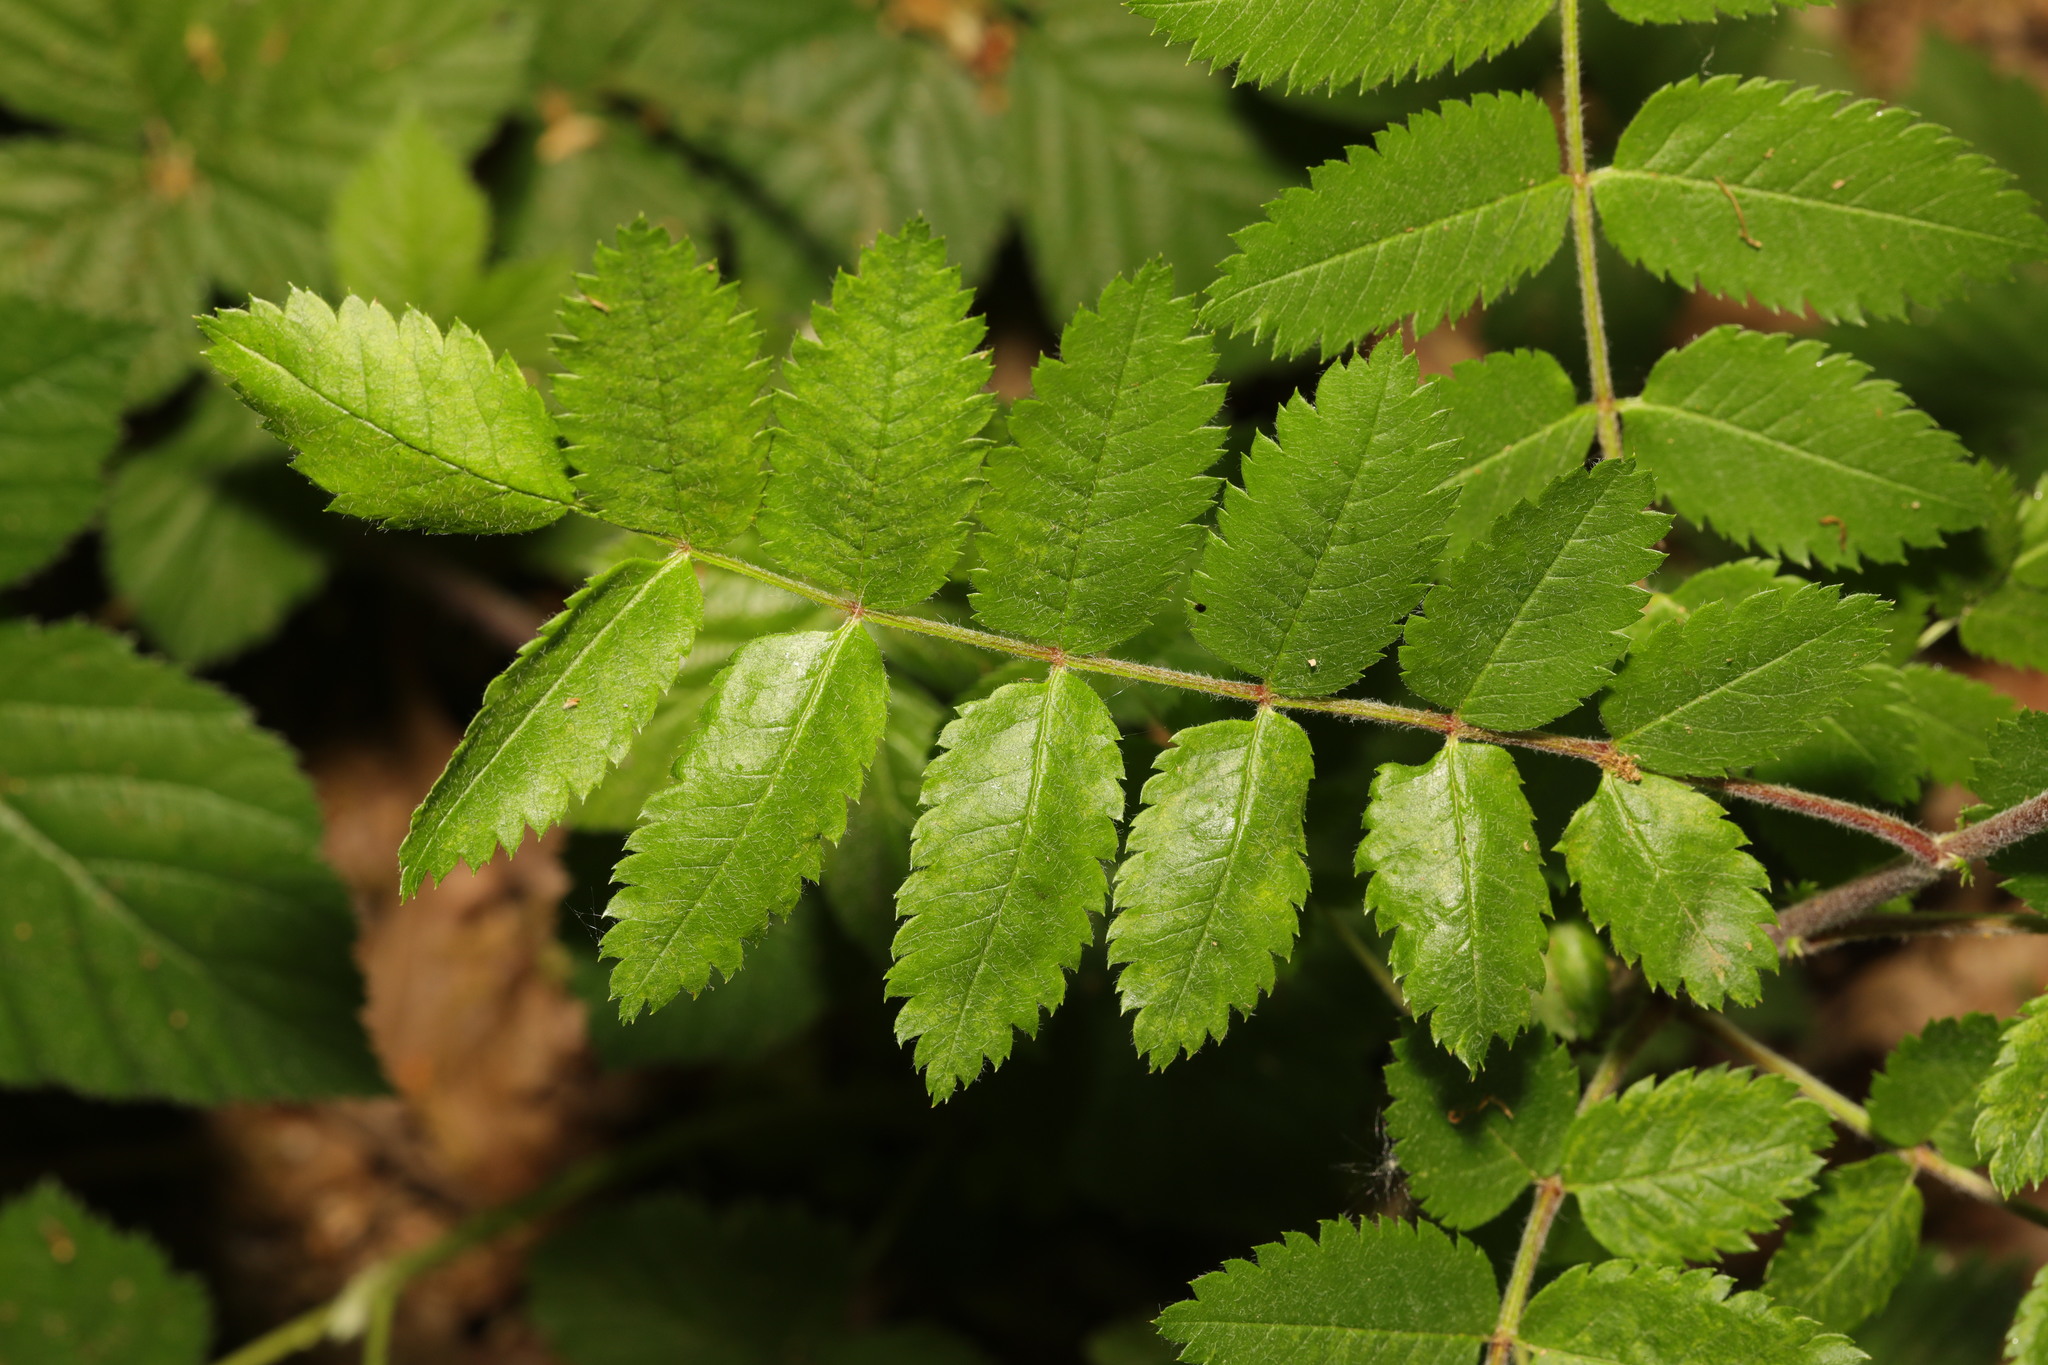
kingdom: Plantae
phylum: Tracheophyta
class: Magnoliopsida
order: Rosales
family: Rosaceae
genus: Sorbus
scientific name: Sorbus aucuparia
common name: Rowan
